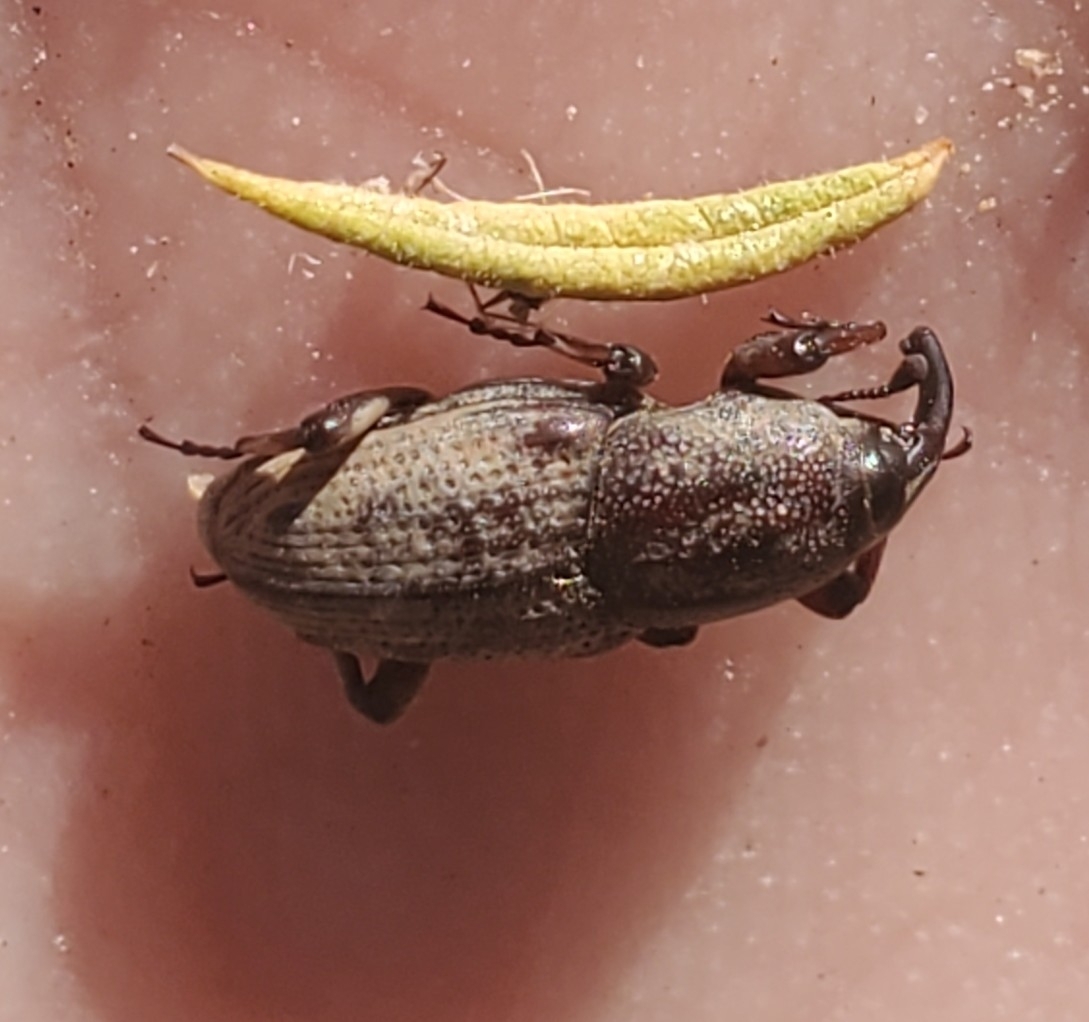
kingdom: Animalia
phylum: Arthropoda
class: Insecta
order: Coleoptera
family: Dryophthoridae
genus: Sphenophorus
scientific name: Sphenophorus venatus
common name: Hunting billbug
